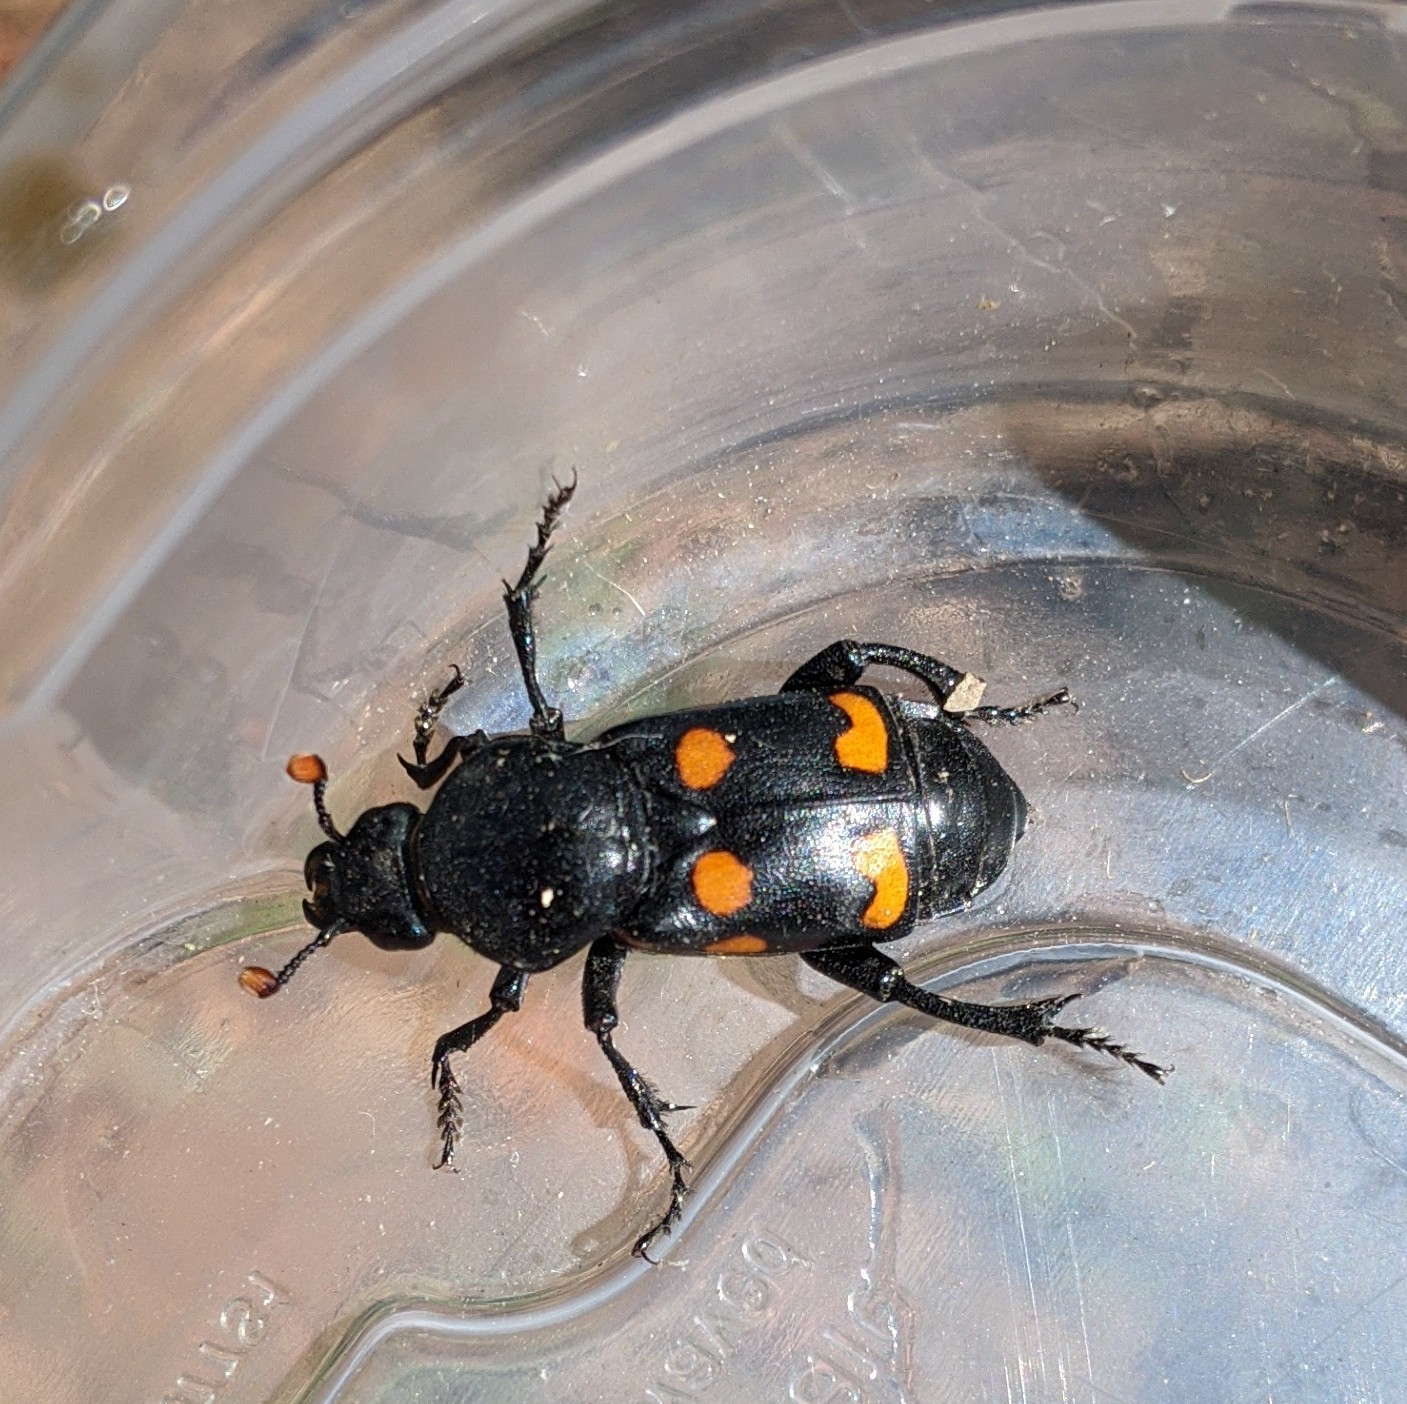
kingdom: Animalia
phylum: Arthropoda
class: Insecta
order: Coleoptera
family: Staphylinidae
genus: Nicrophorus
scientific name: Nicrophorus carolinus
